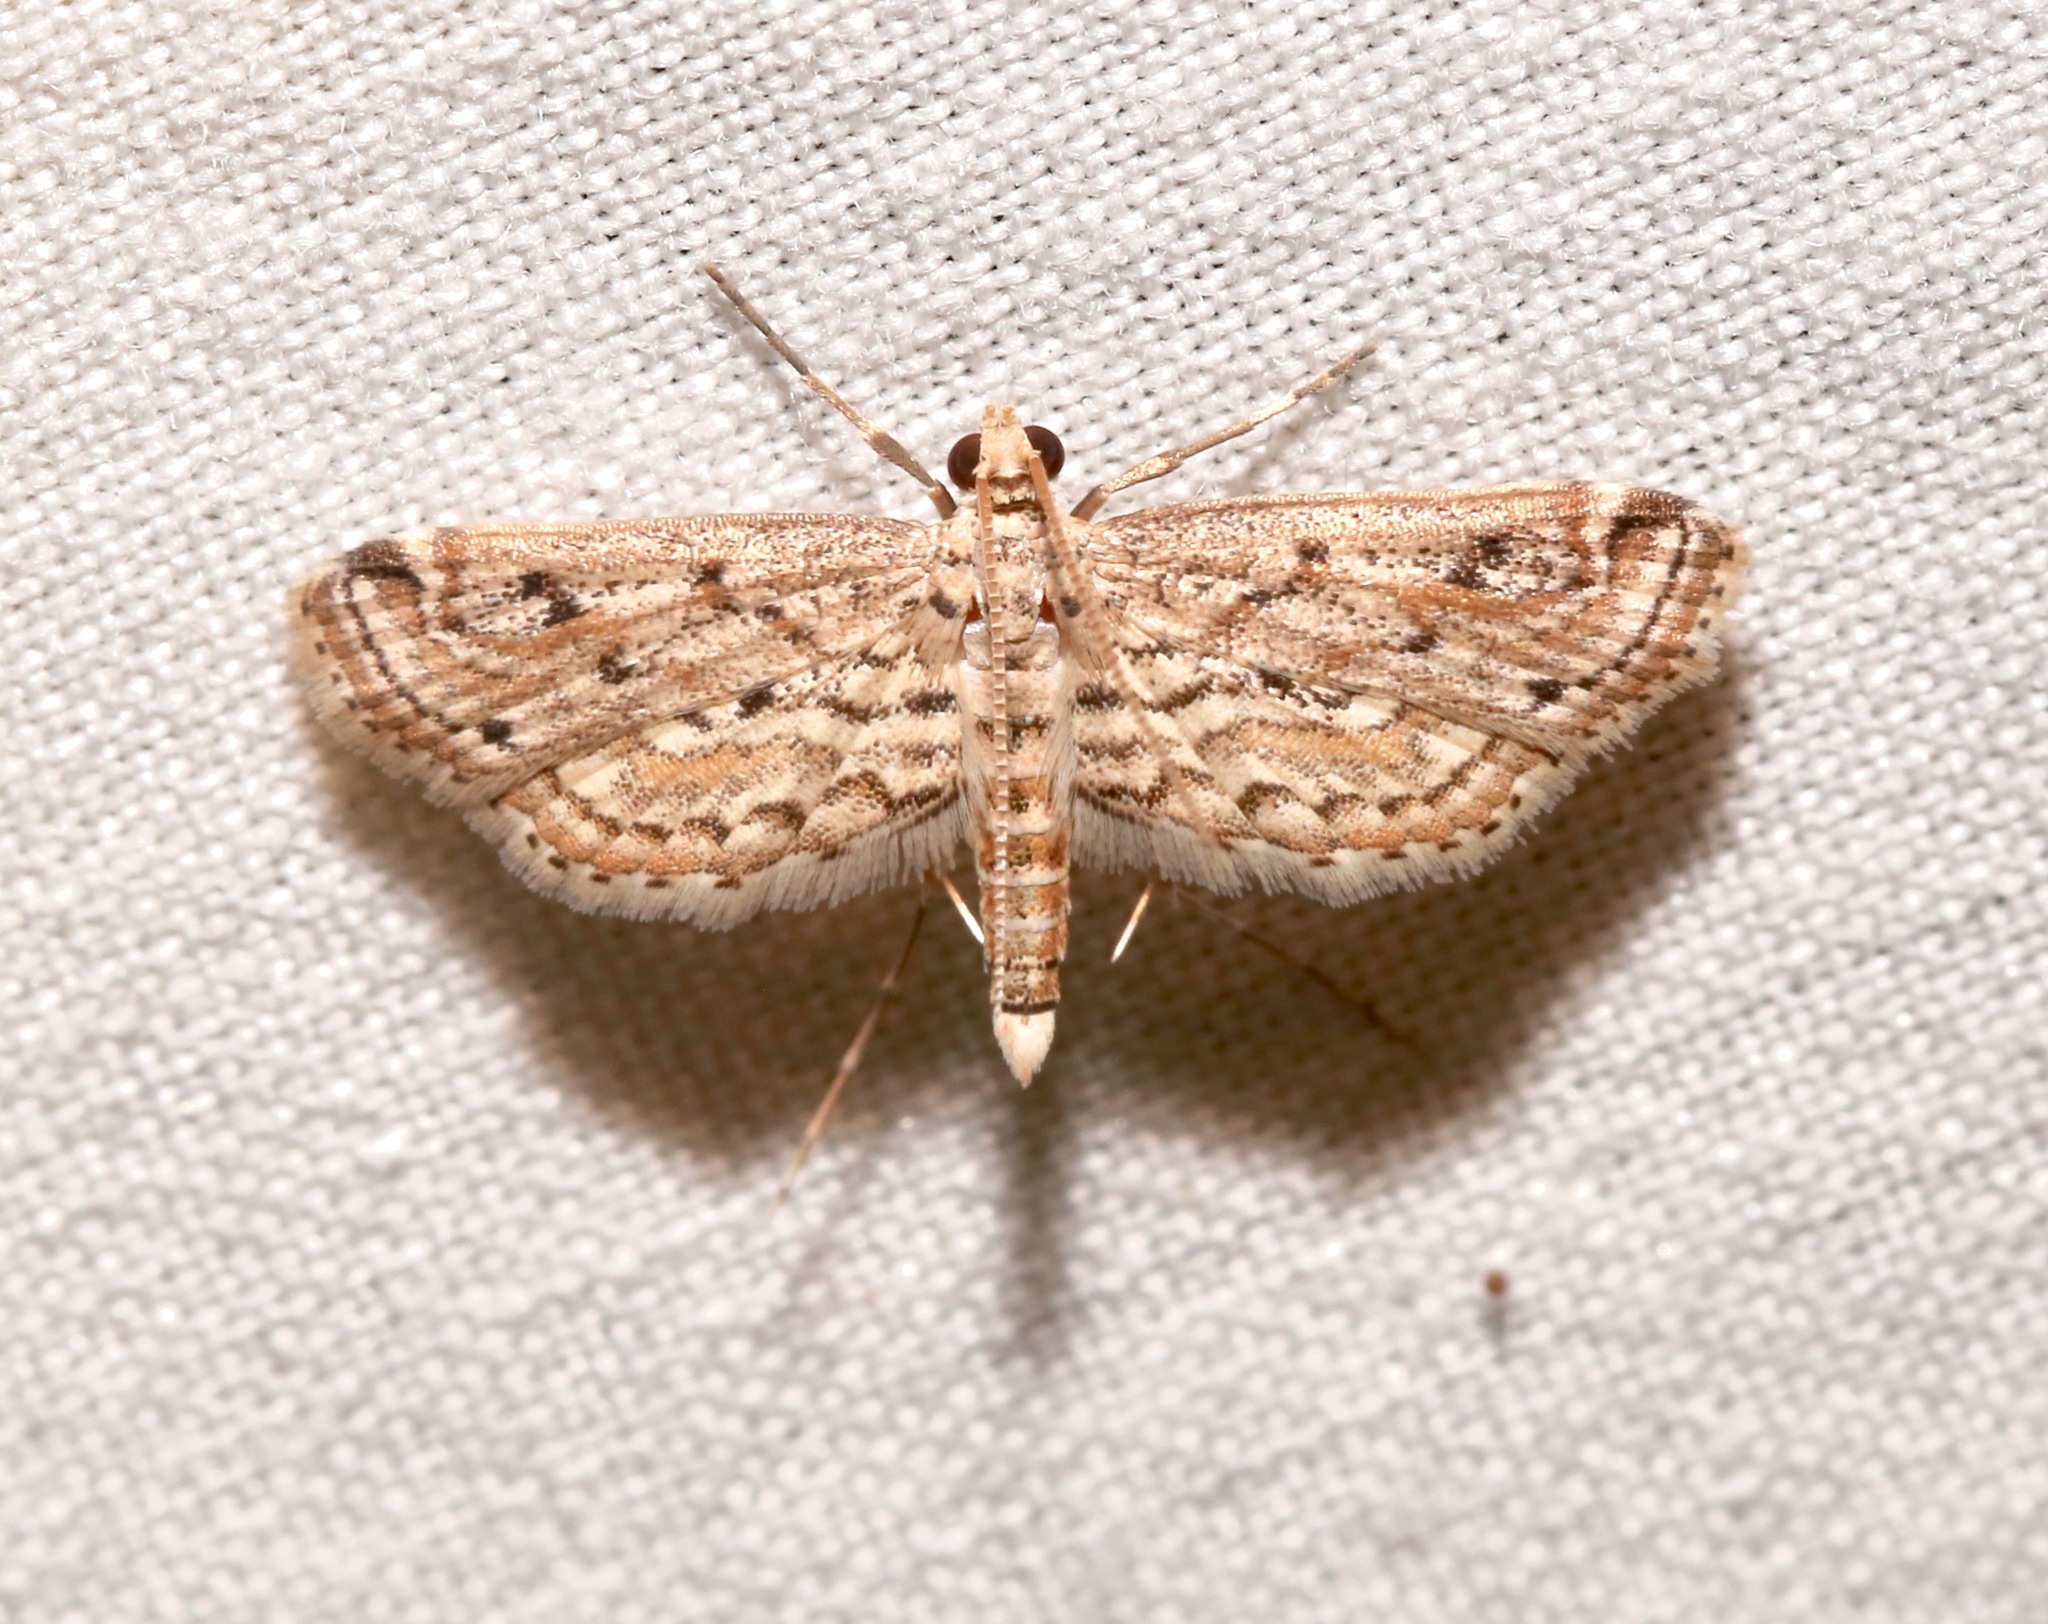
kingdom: Animalia
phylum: Arthropoda
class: Insecta
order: Lepidoptera
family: Crambidae
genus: Parapoynx
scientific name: Parapoynx allionealis
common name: Bladderwort casemaker
